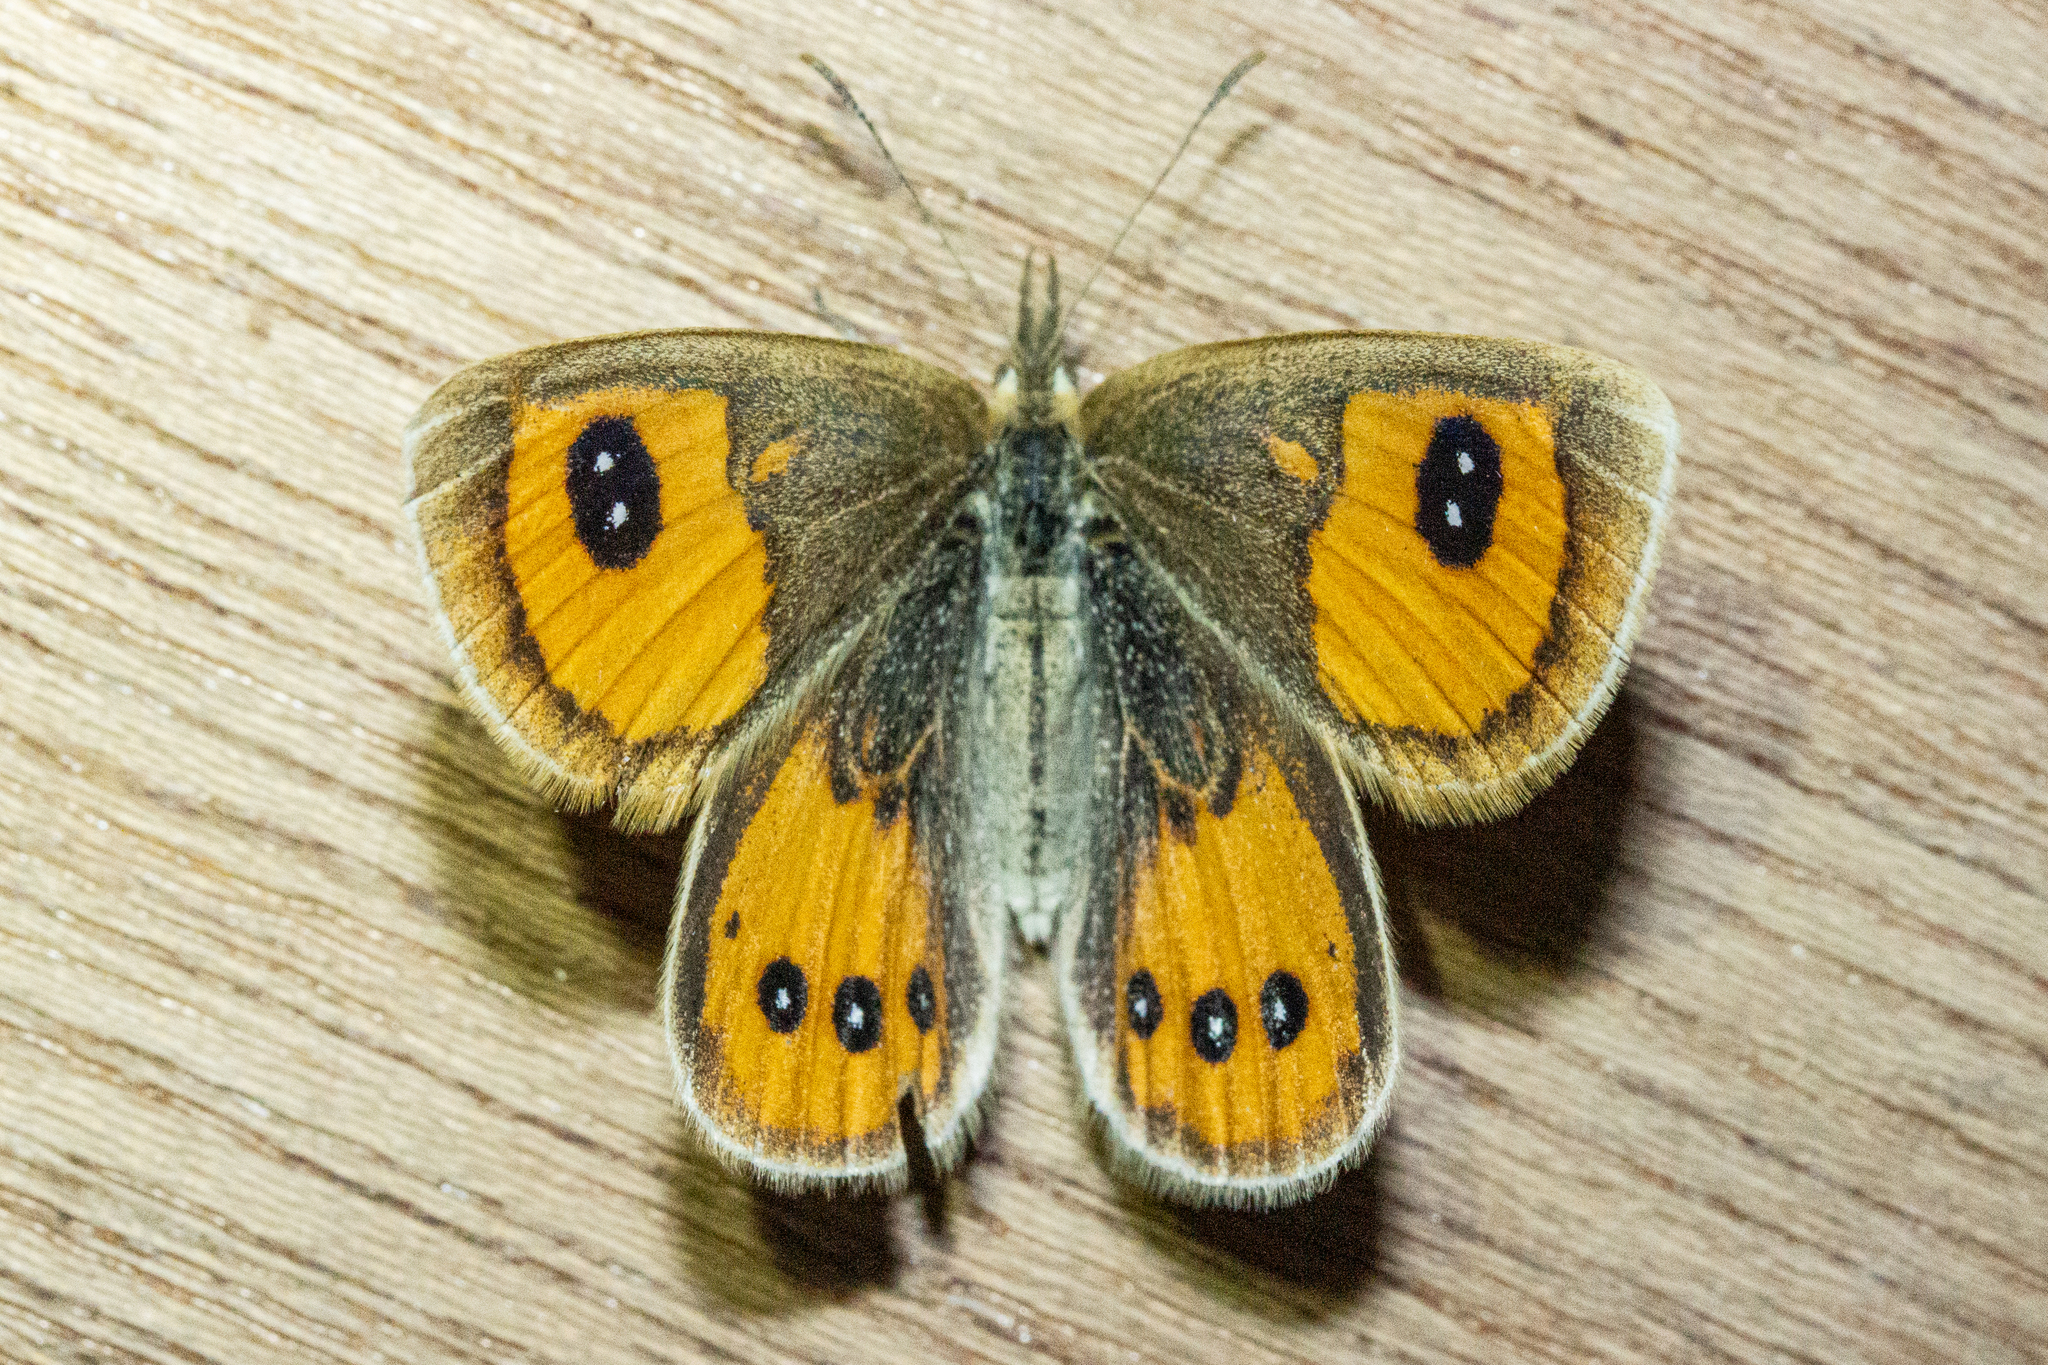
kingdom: Animalia
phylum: Arthropoda
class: Insecta
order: Lepidoptera
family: Nymphalidae
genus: Argyrophenga
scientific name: Argyrophenga antipodum
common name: Common tussock butterfly
